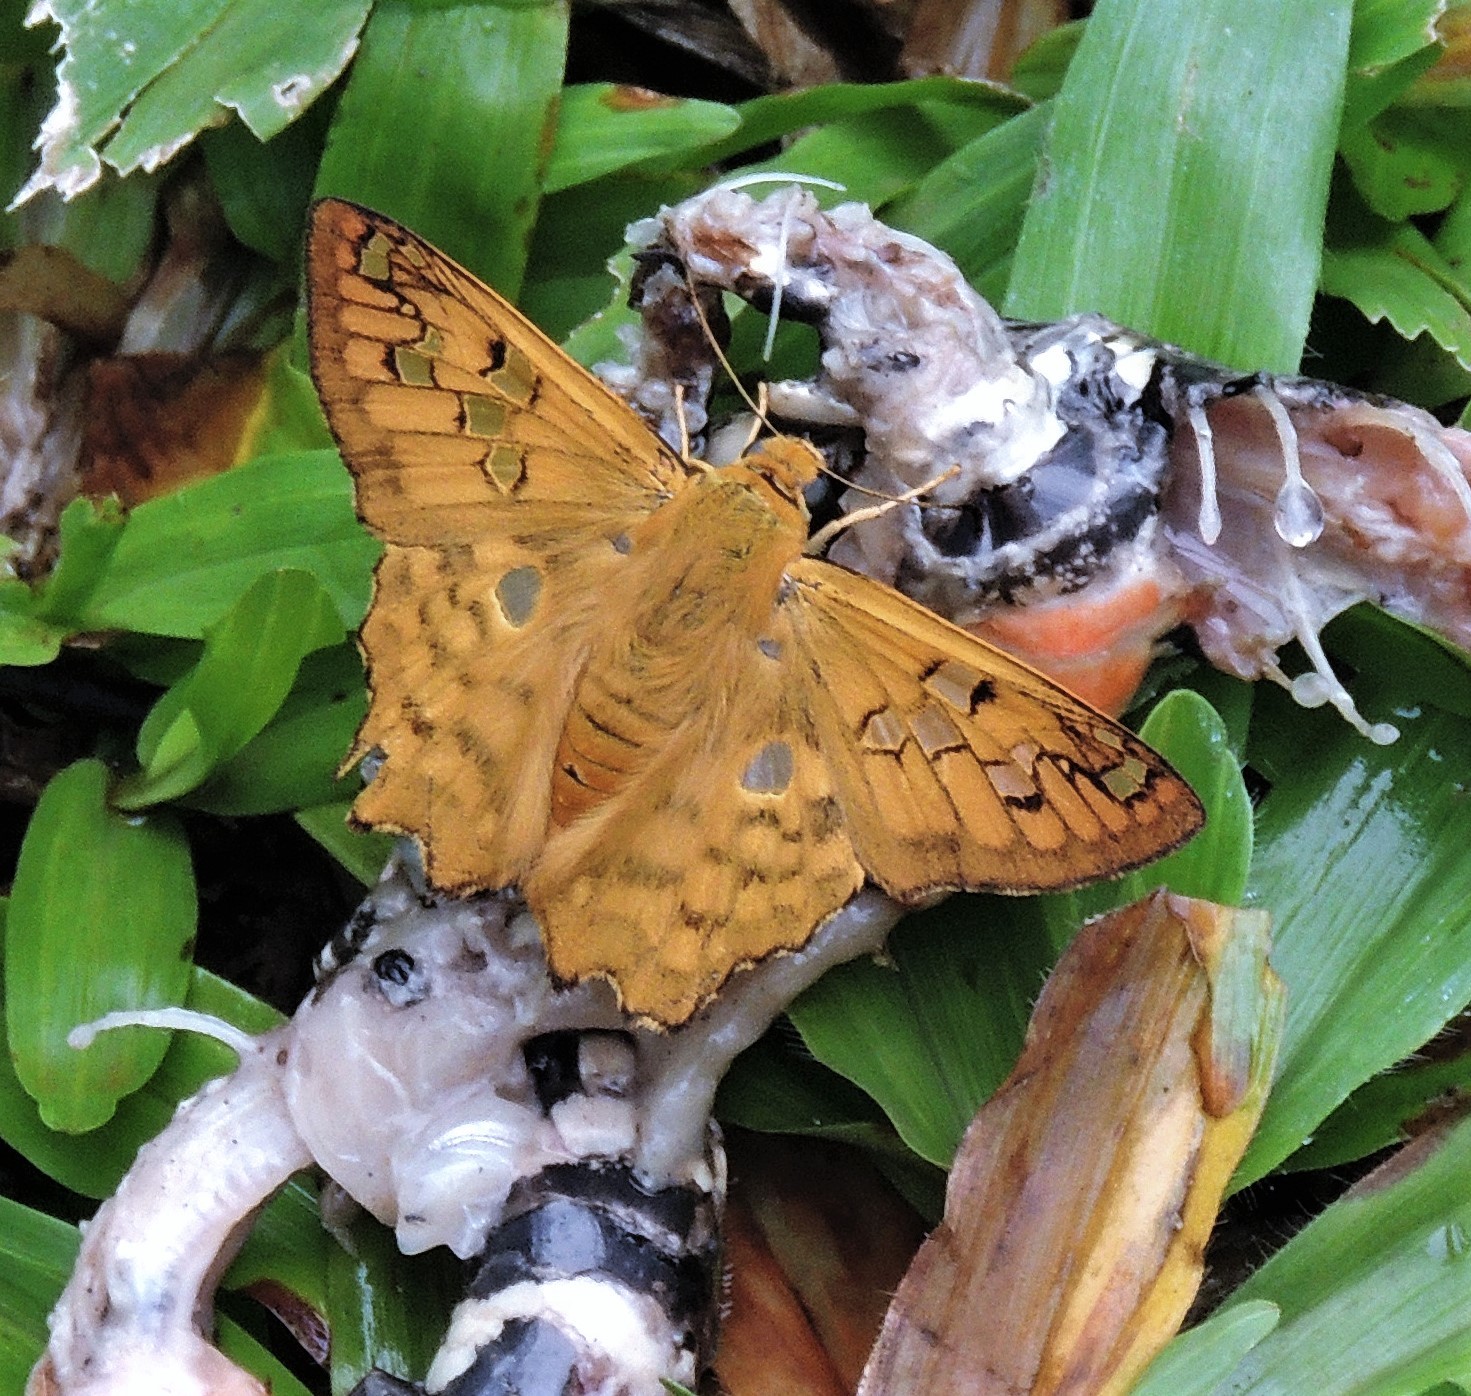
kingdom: Animalia
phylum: Arthropoda
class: Insecta
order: Lepidoptera
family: Hesperiidae
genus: Myscelus
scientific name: Myscelus amystis
